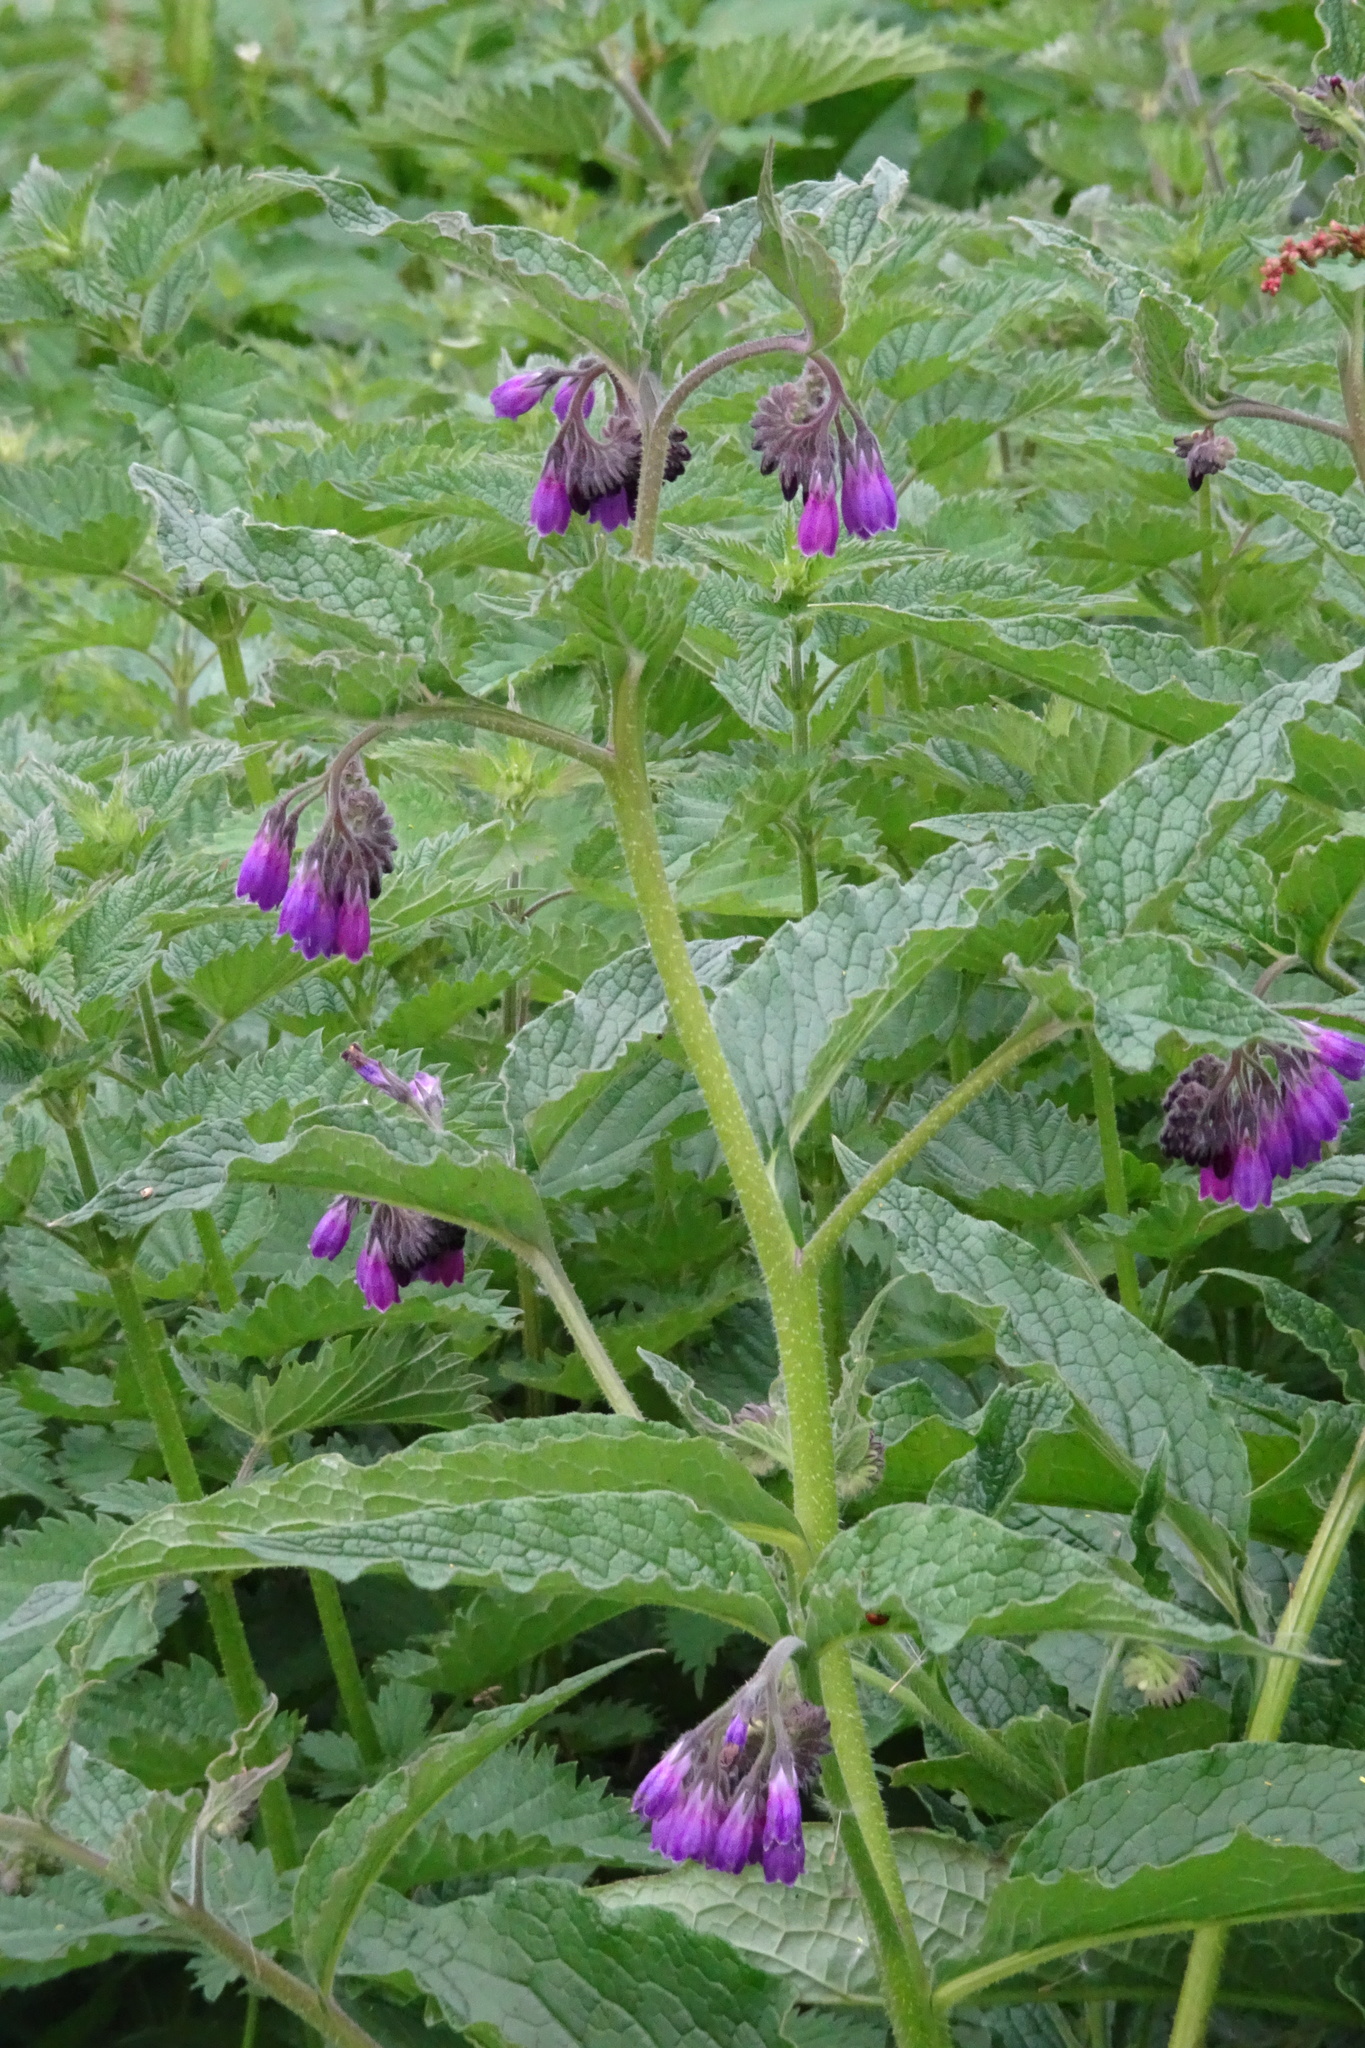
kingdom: Plantae
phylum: Tracheophyta
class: Magnoliopsida
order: Boraginales
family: Boraginaceae
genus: Symphytum
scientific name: Symphytum officinale
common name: Common comfrey
